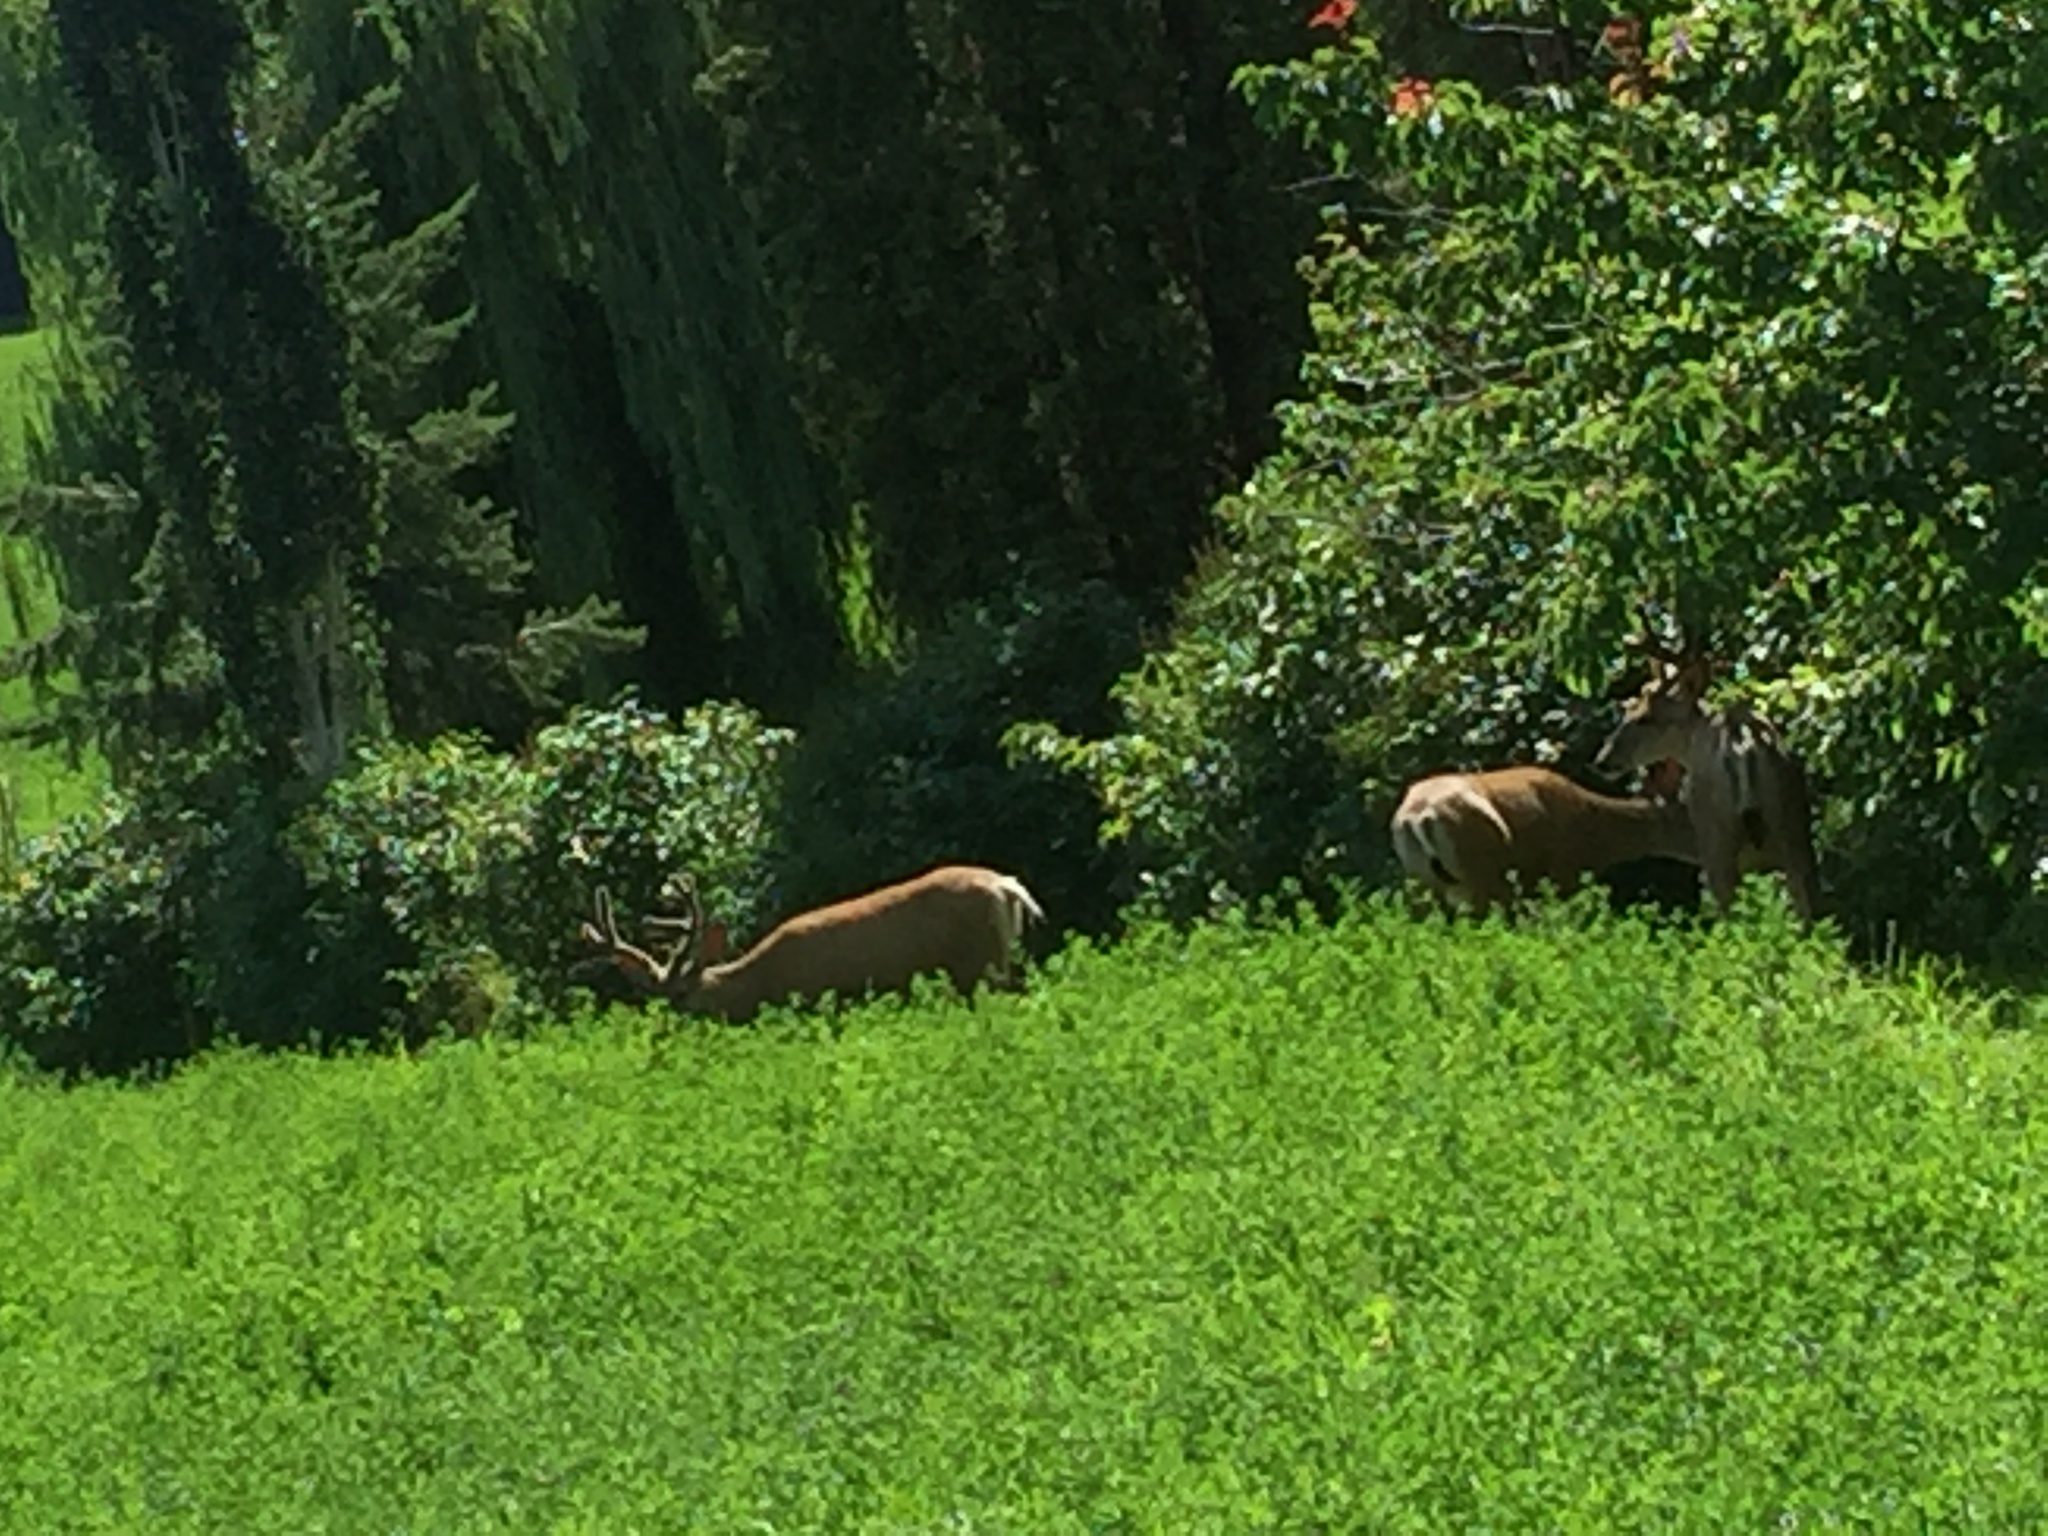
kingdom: Animalia
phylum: Chordata
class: Mammalia
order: Artiodactyla
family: Cervidae
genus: Odocoileus
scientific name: Odocoileus hemionus
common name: Mule deer
